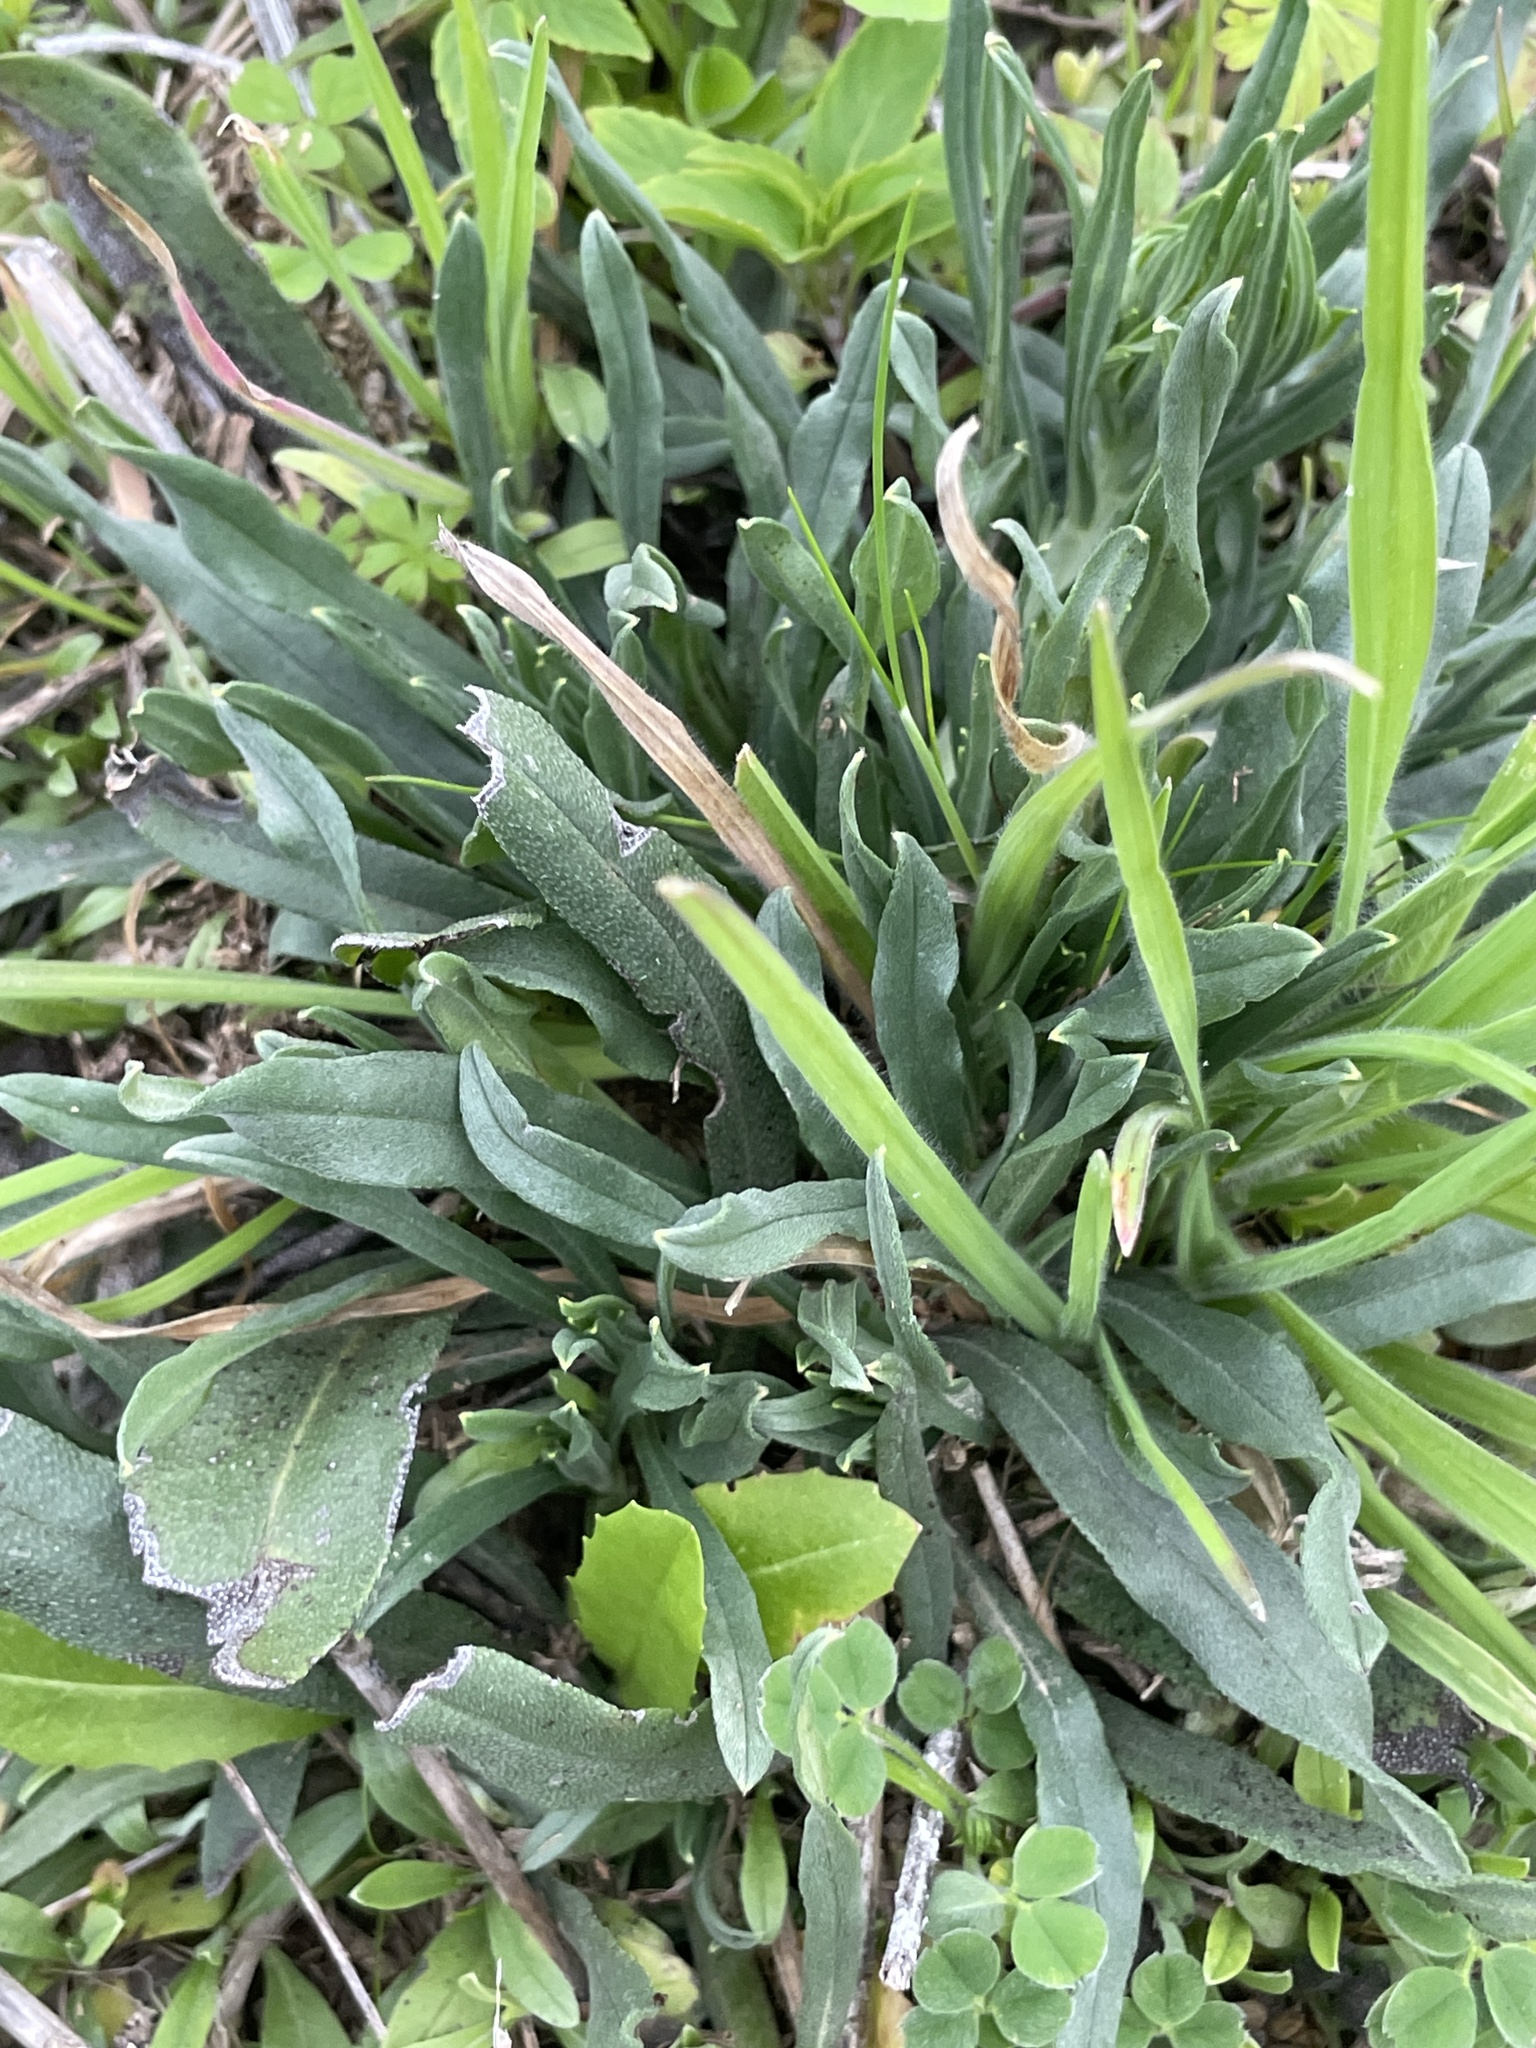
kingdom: Plantae
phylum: Tracheophyta
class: Magnoliopsida
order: Boraginales
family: Boraginaceae
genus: Lithospermum
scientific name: Lithospermum incisum
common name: Fringed gromwell
